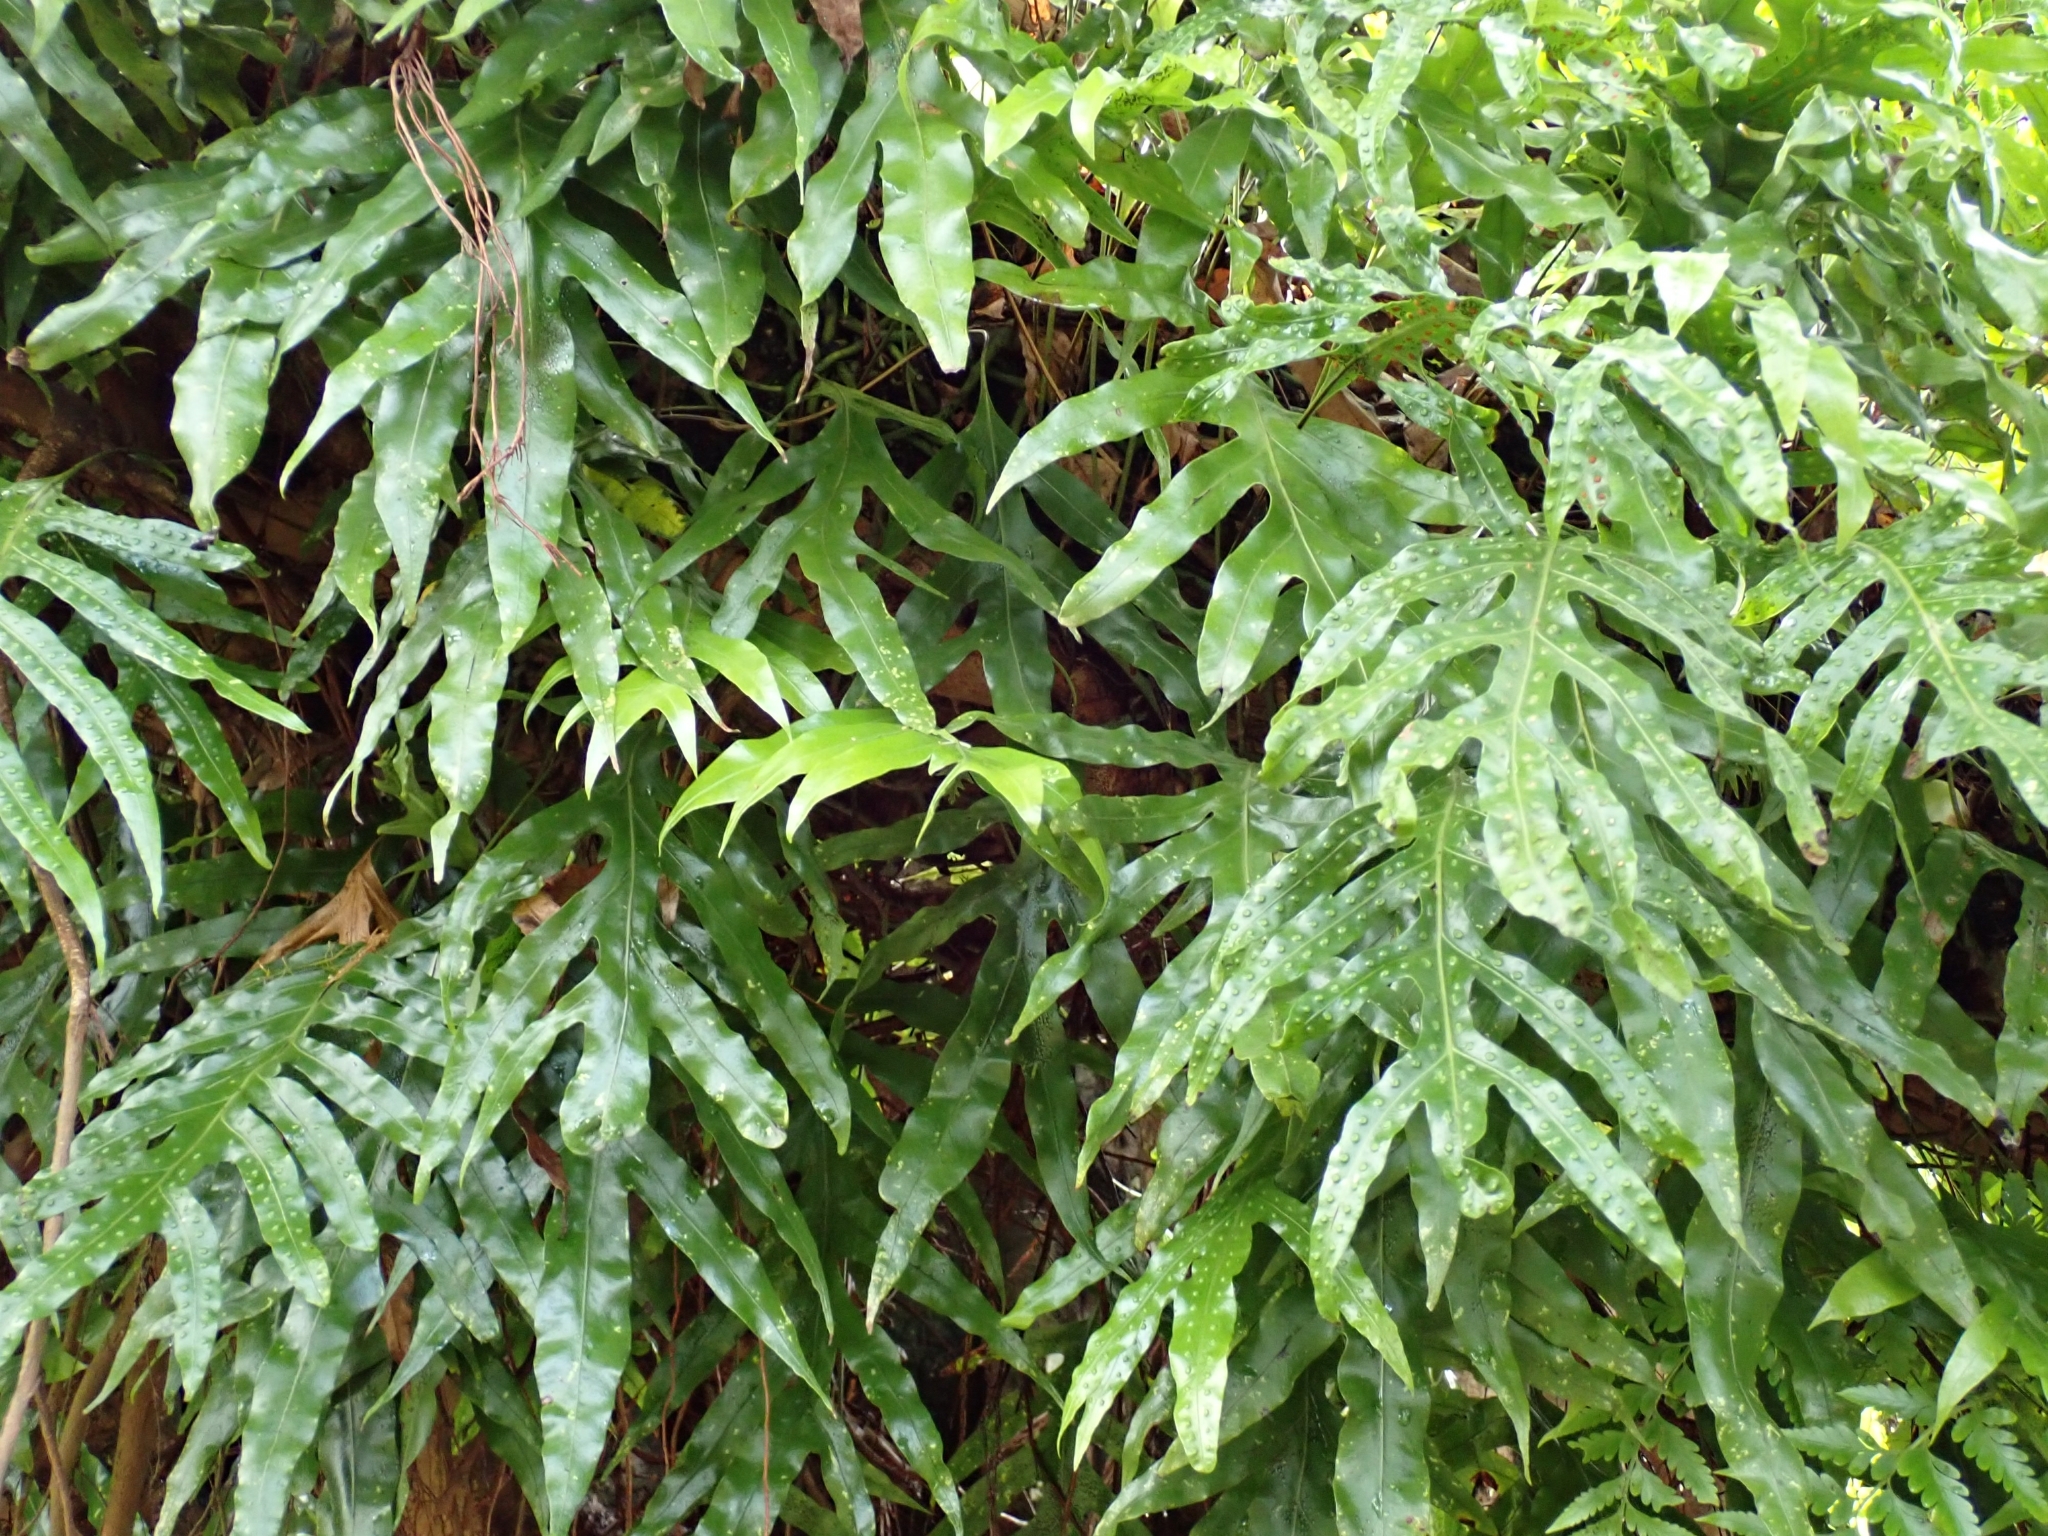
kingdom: Plantae
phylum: Tracheophyta
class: Polypodiopsida
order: Polypodiales
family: Polypodiaceae
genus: Microsorum
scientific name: Microsorum grossum
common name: Musk fern
